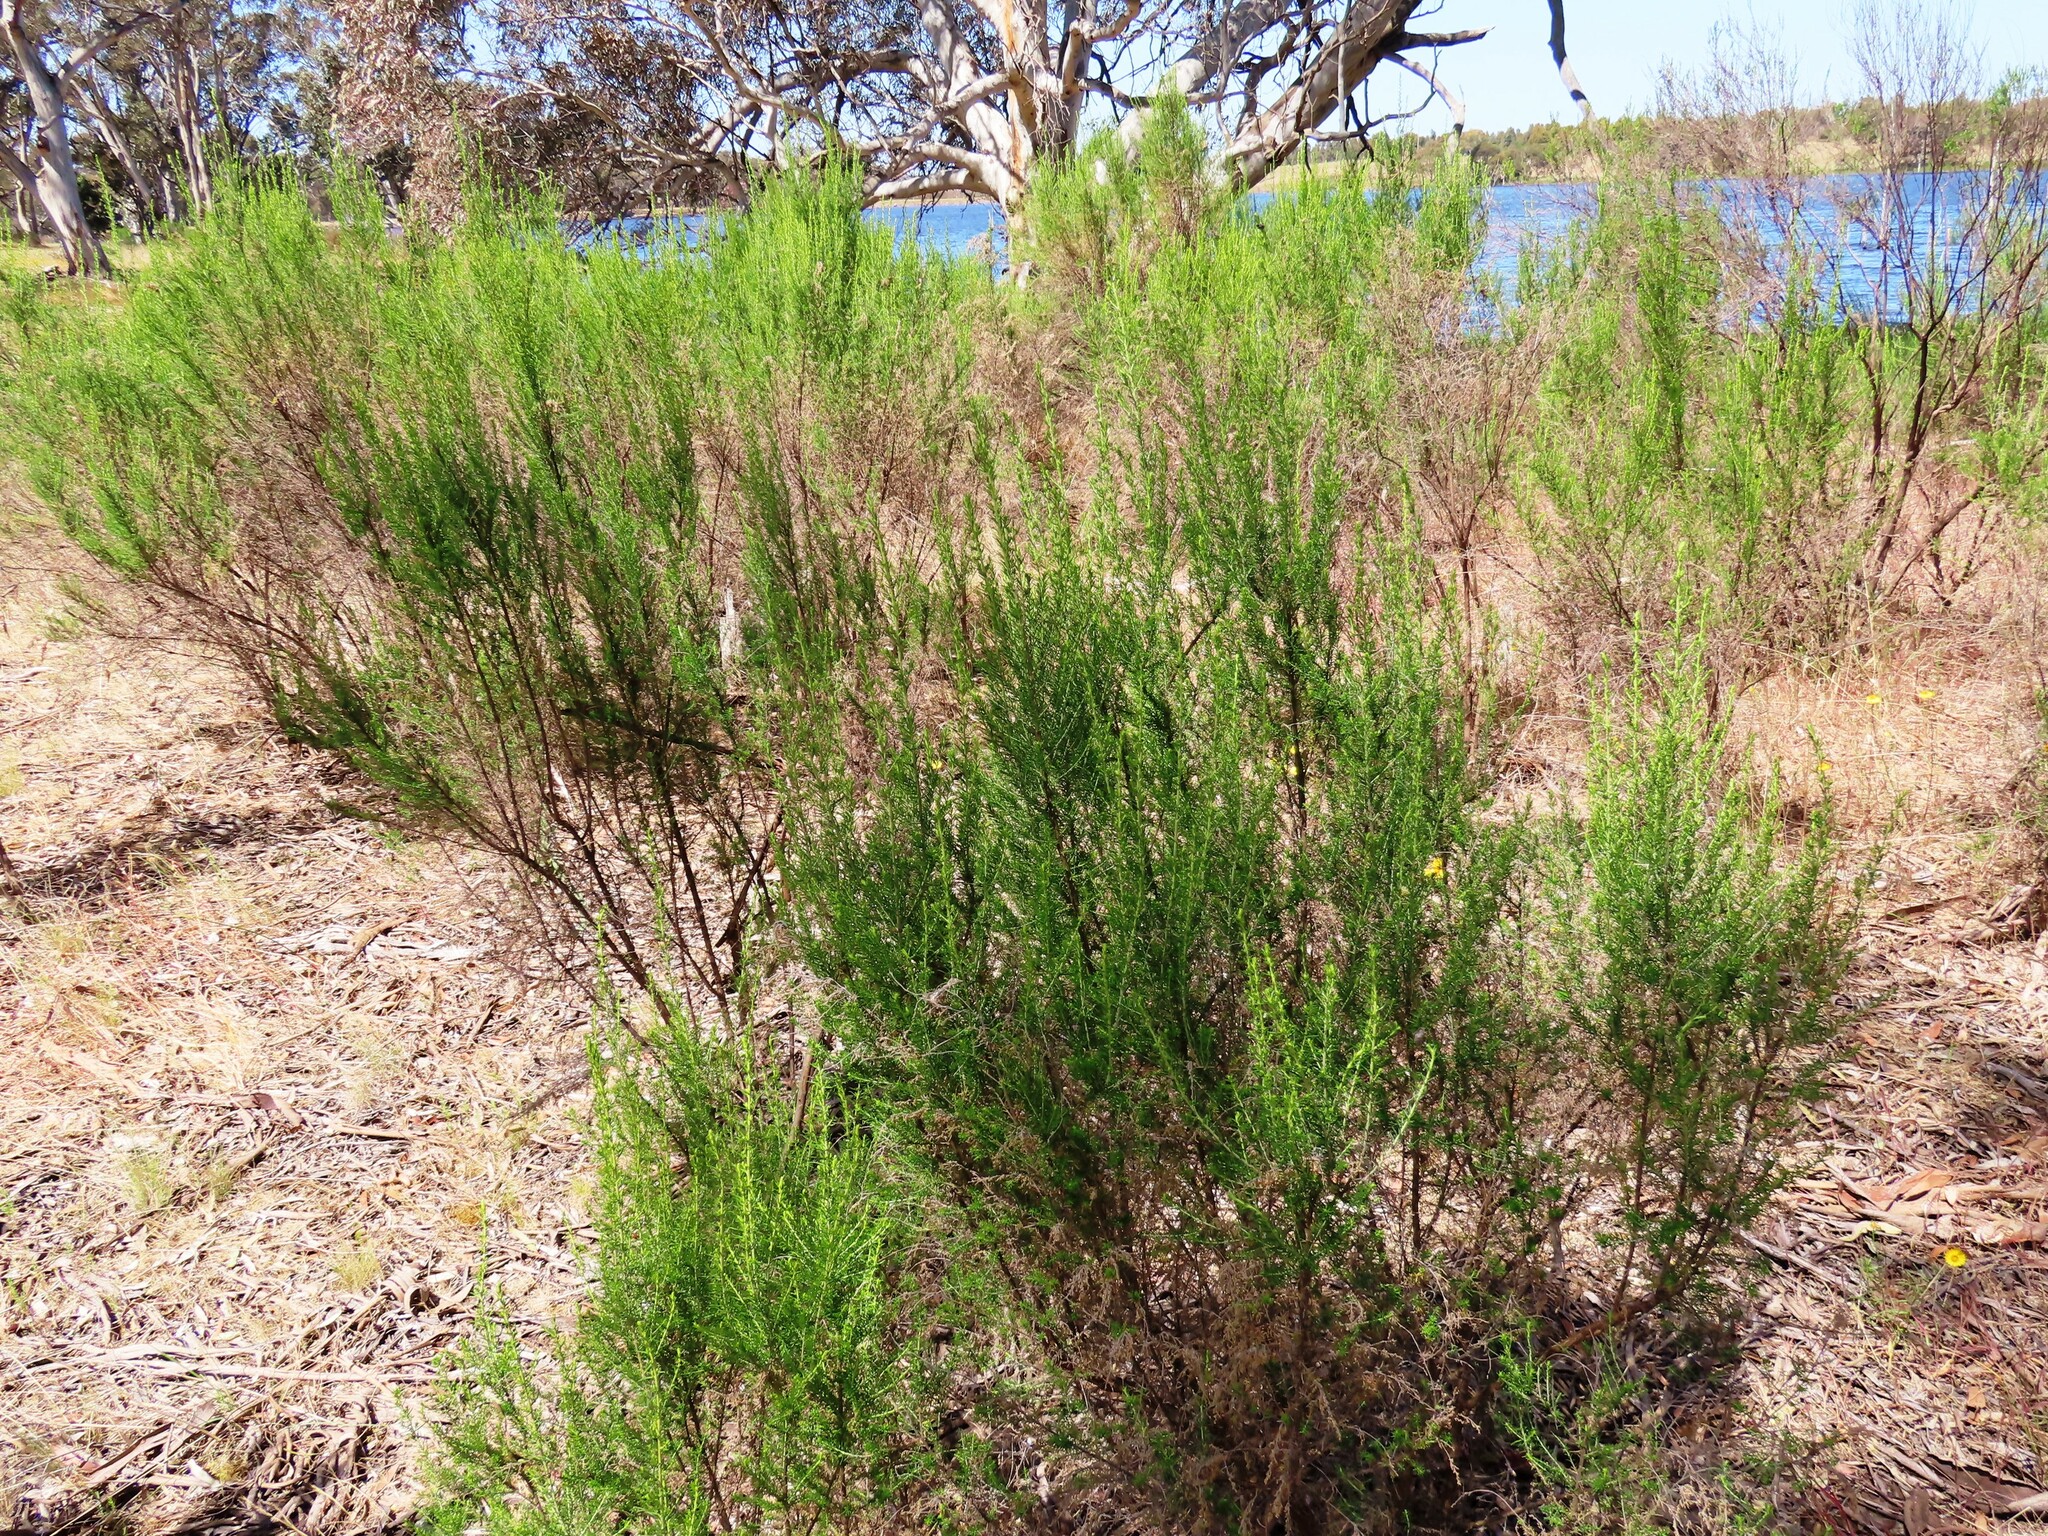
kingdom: Plantae
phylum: Tracheophyta
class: Magnoliopsida
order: Asterales
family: Asteraceae
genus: Cassinia
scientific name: Cassinia sifton
